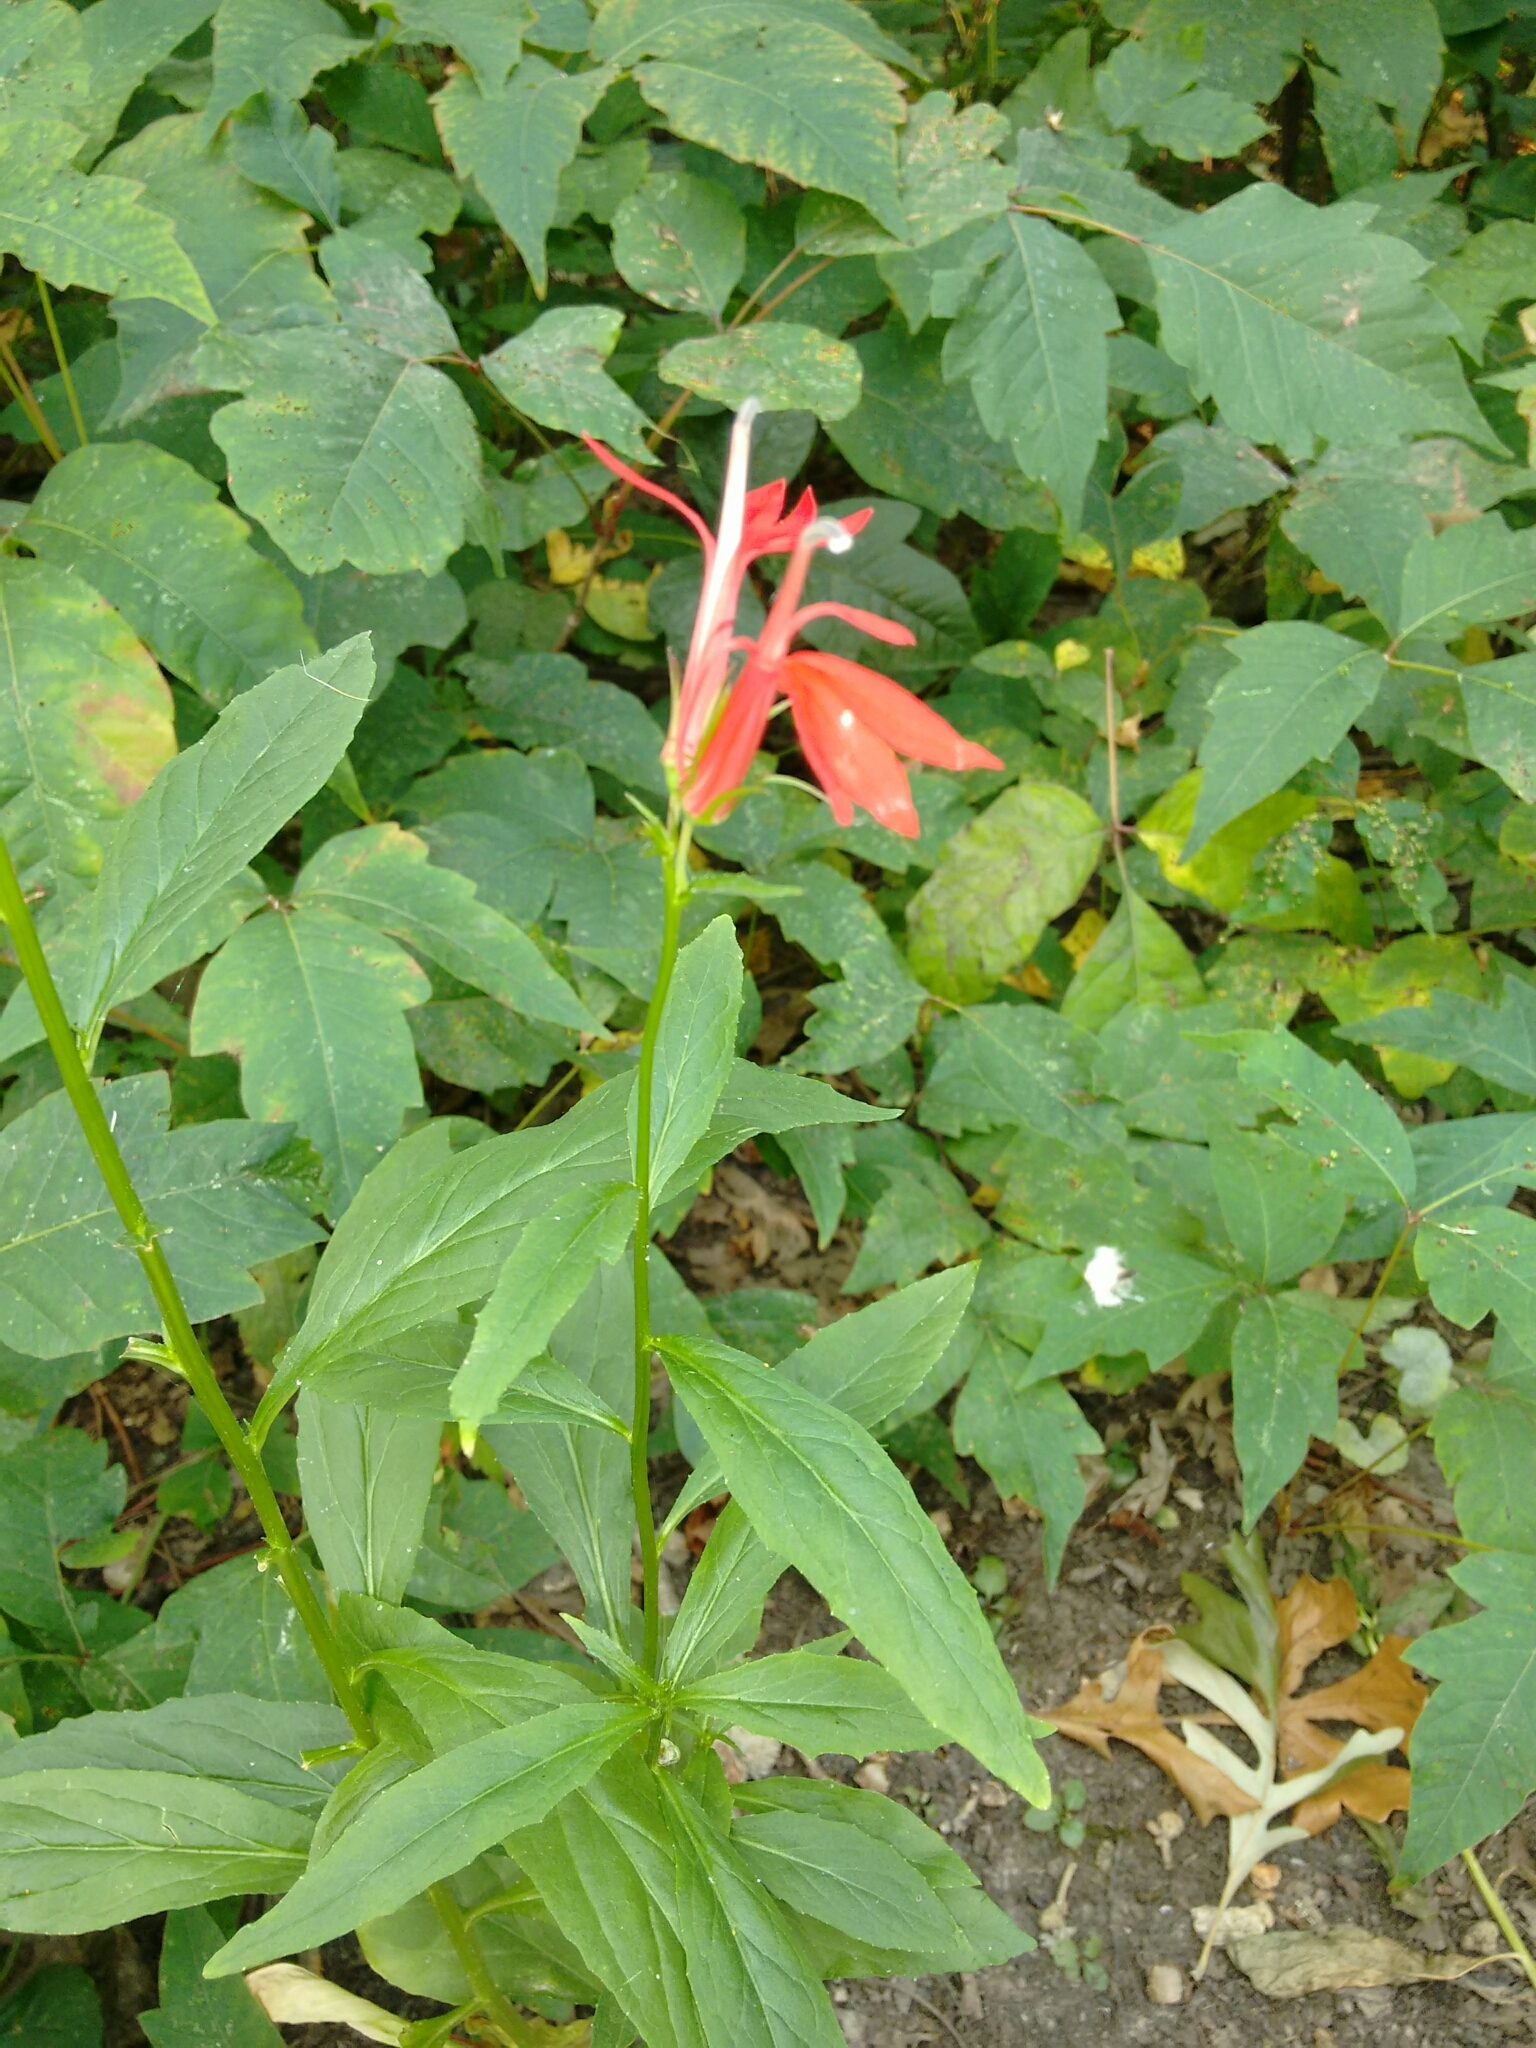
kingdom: Plantae
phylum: Tracheophyta
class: Magnoliopsida
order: Asterales
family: Campanulaceae
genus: Lobelia
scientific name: Lobelia cardinalis
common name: Cardinal flower
